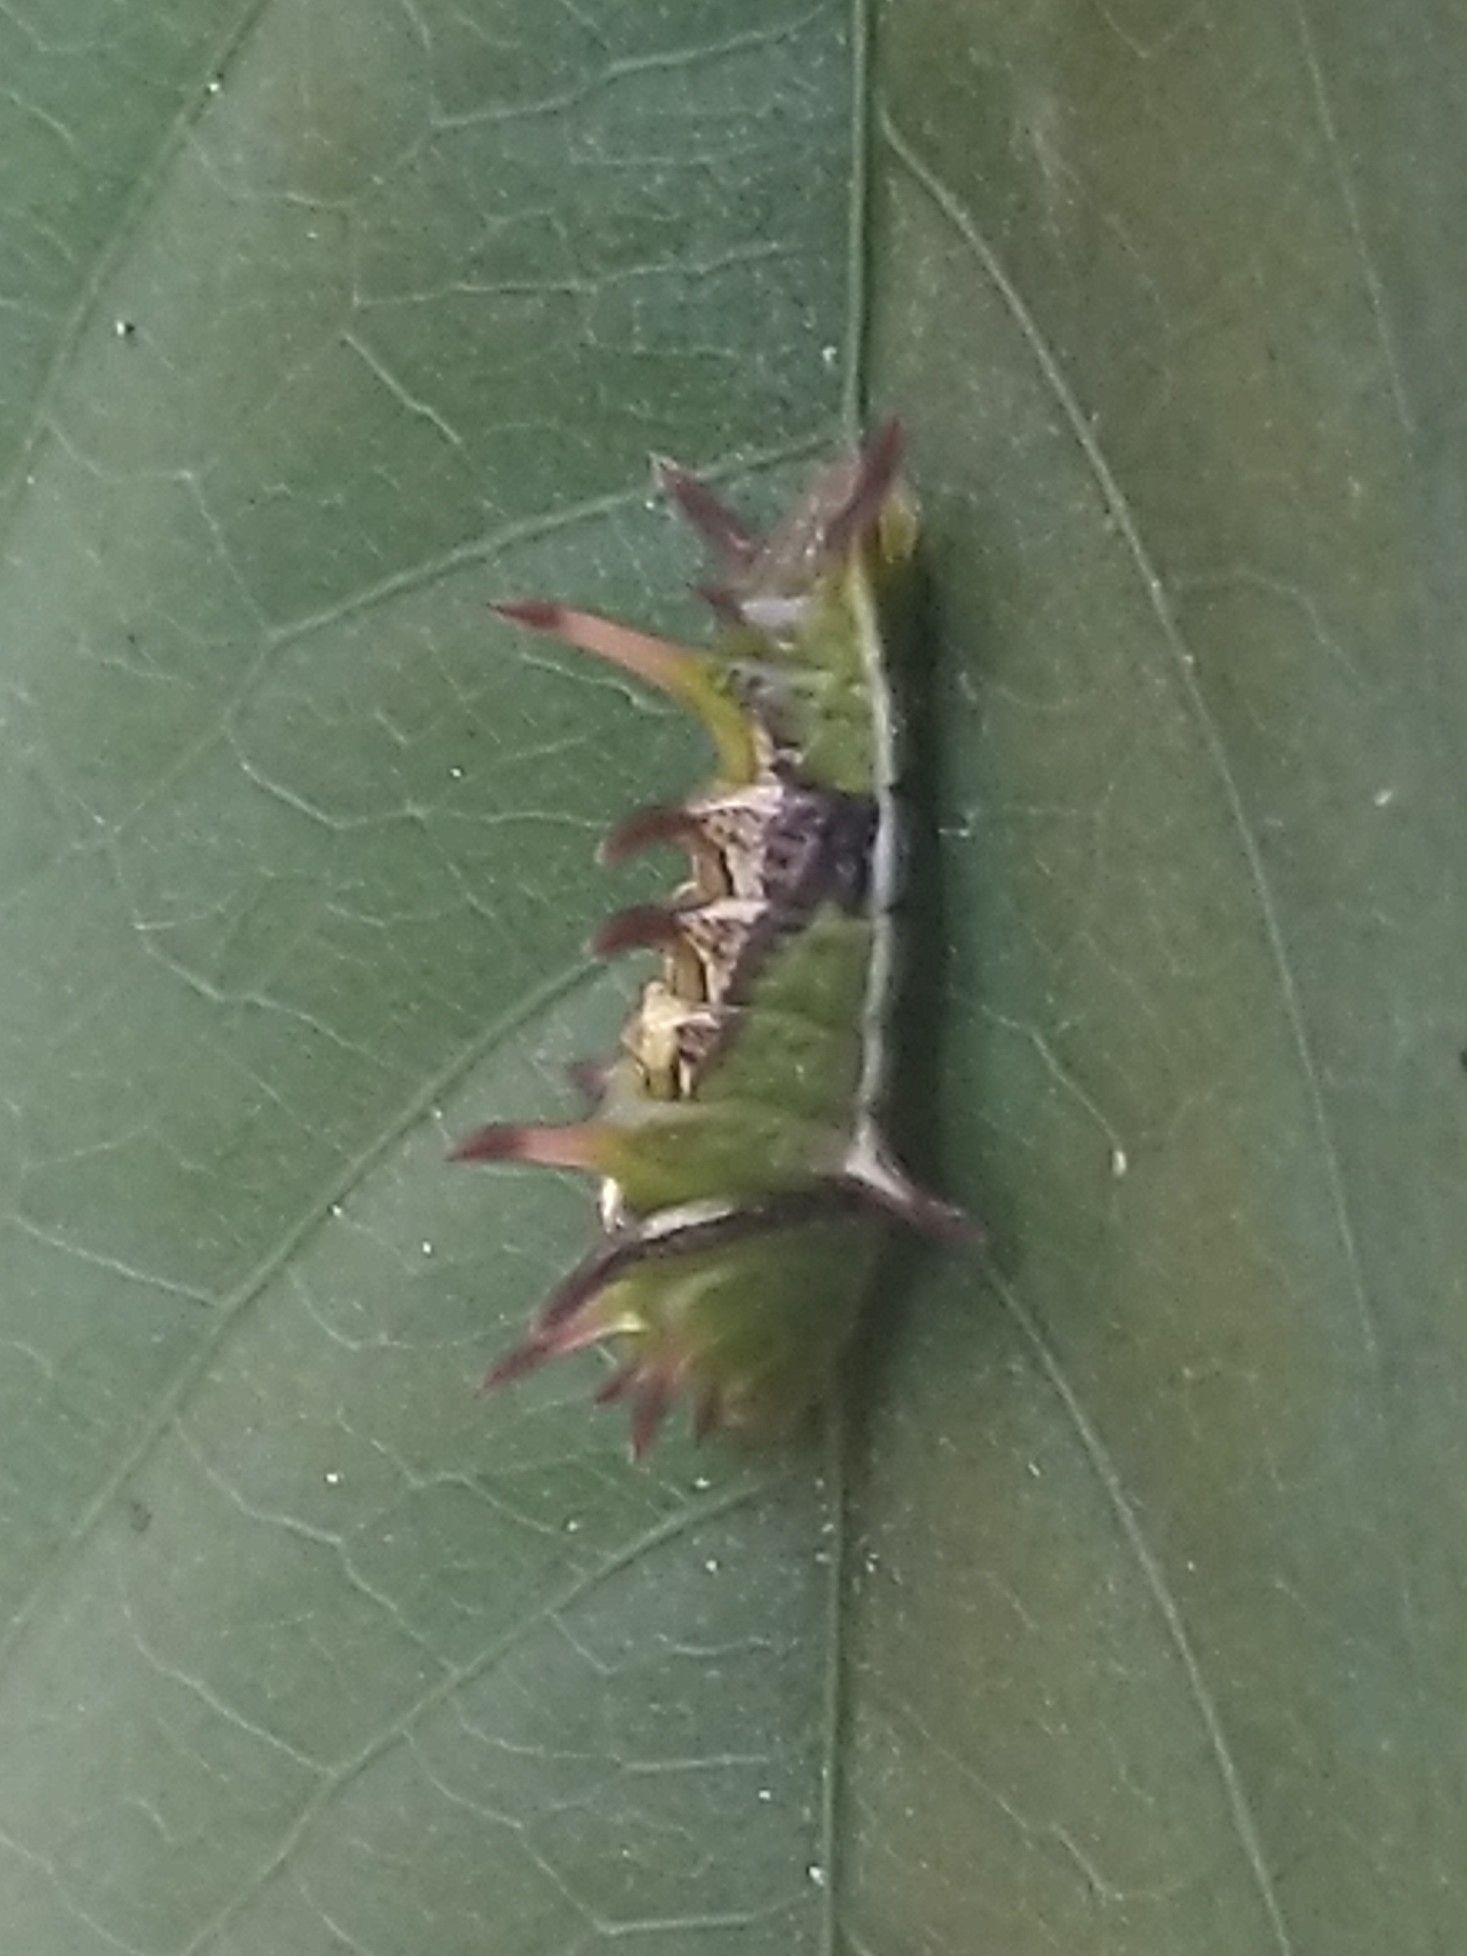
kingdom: Animalia
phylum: Arthropoda
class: Insecta
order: Lepidoptera
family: Lycaenidae
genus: Rathinda
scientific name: Rathinda amor
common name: Monkey puzzle
